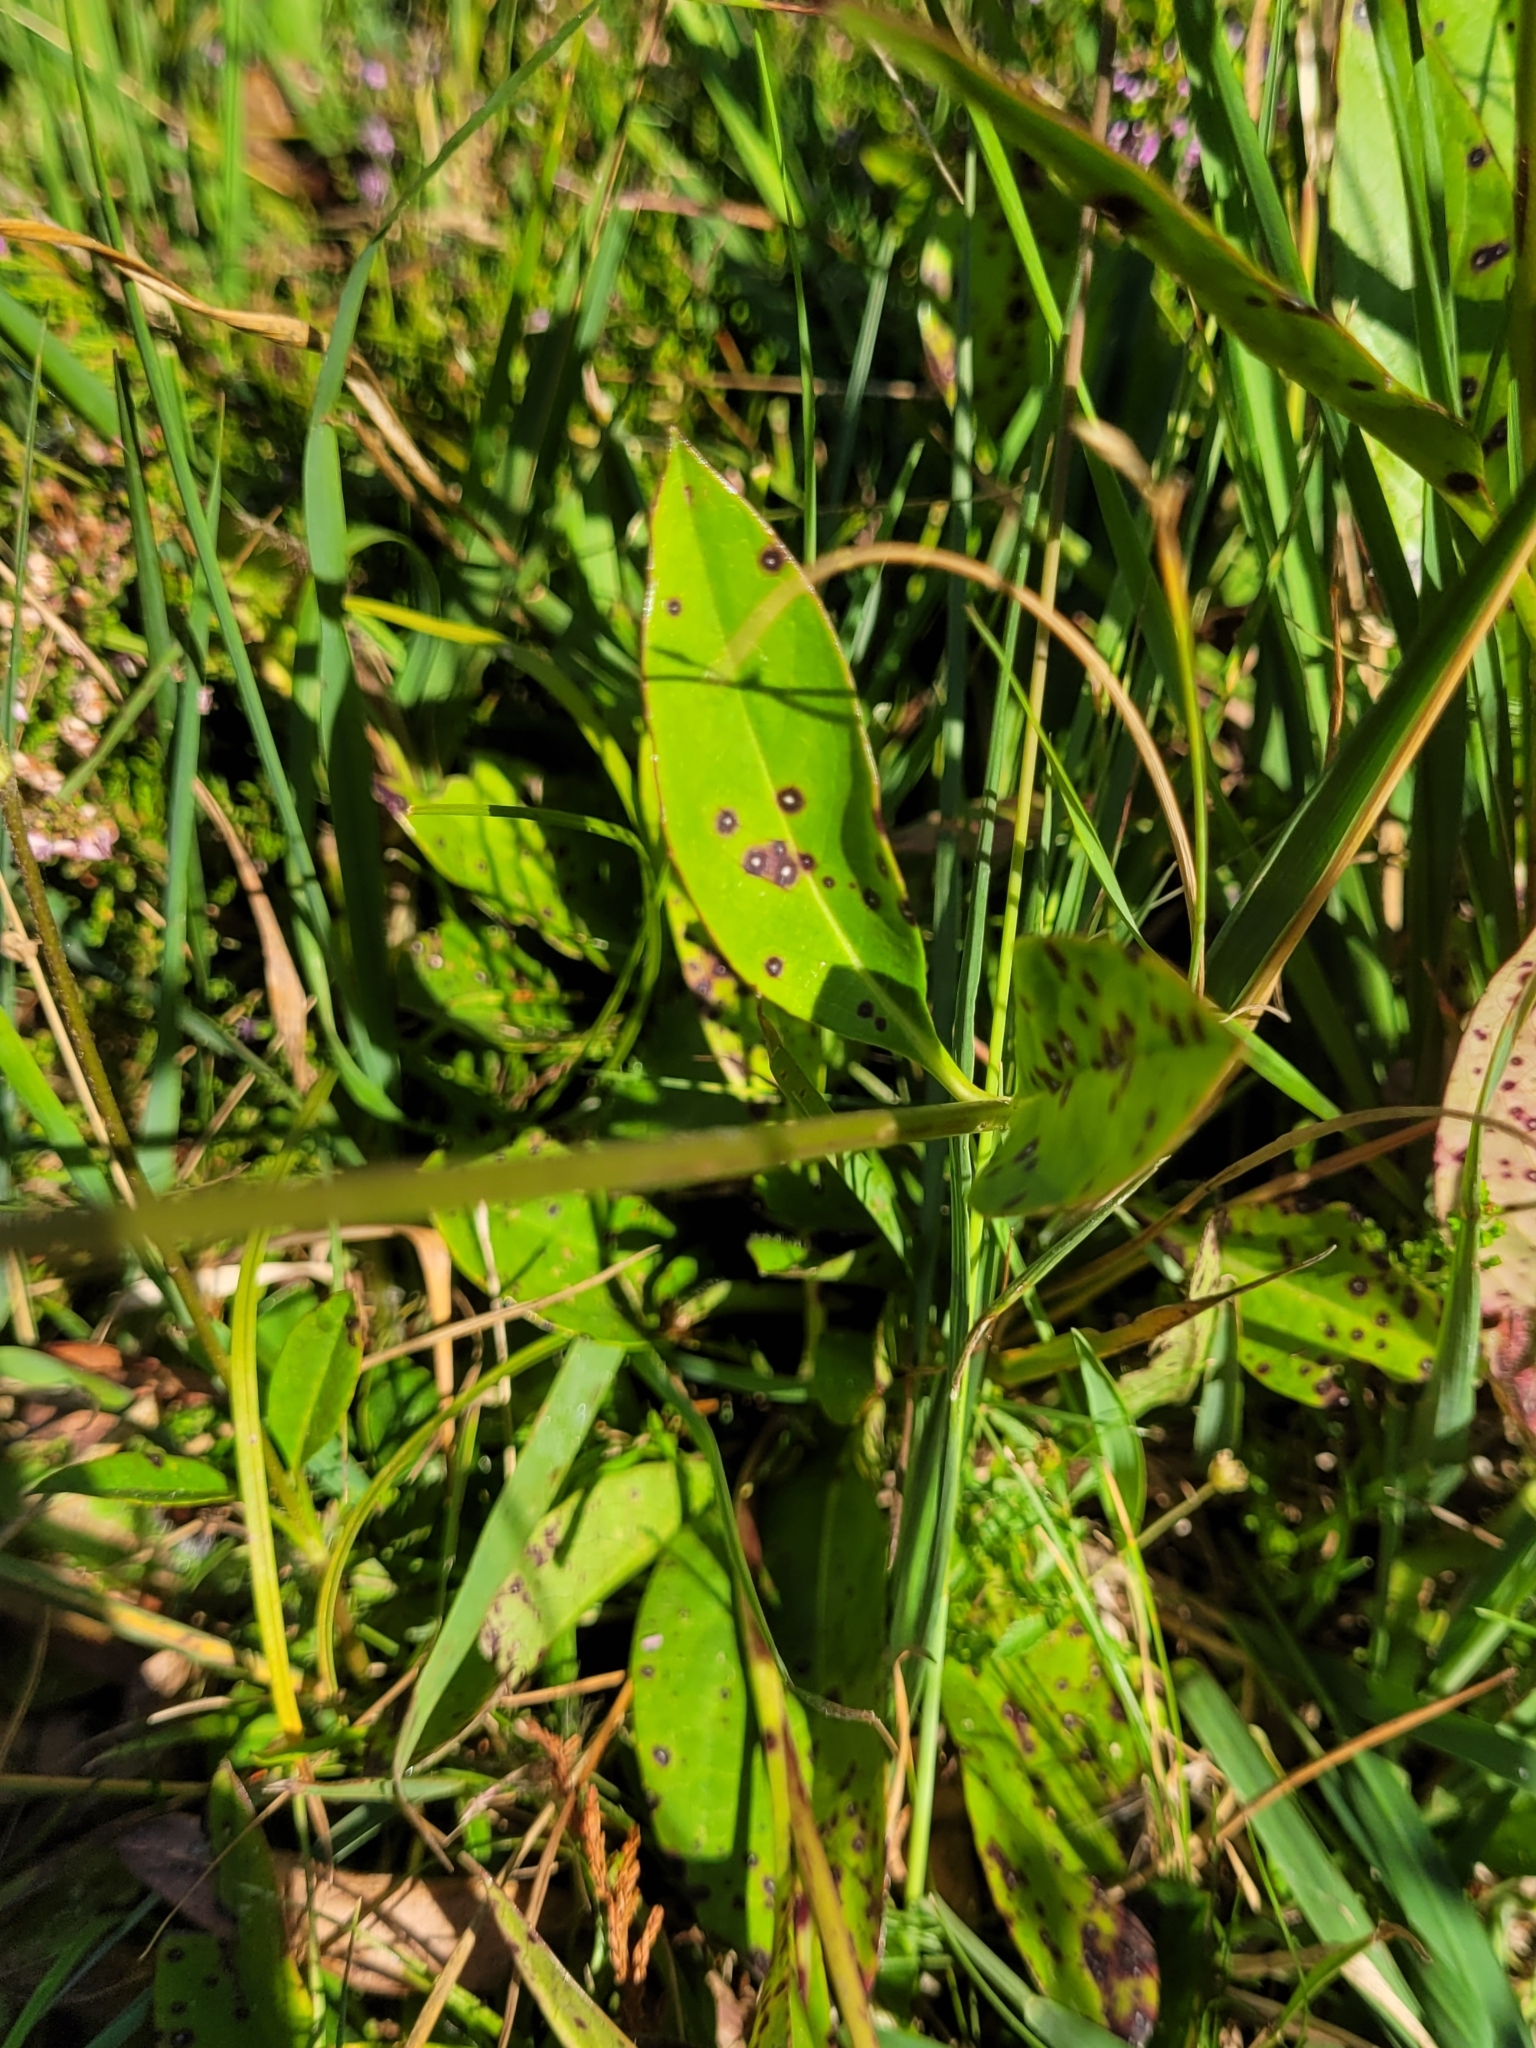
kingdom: Plantae
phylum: Tracheophyta
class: Magnoliopsida
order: Dipsacales
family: Caprifoliaceae
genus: Succisa
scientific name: Succisa pratensis
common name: Devil's-bit
